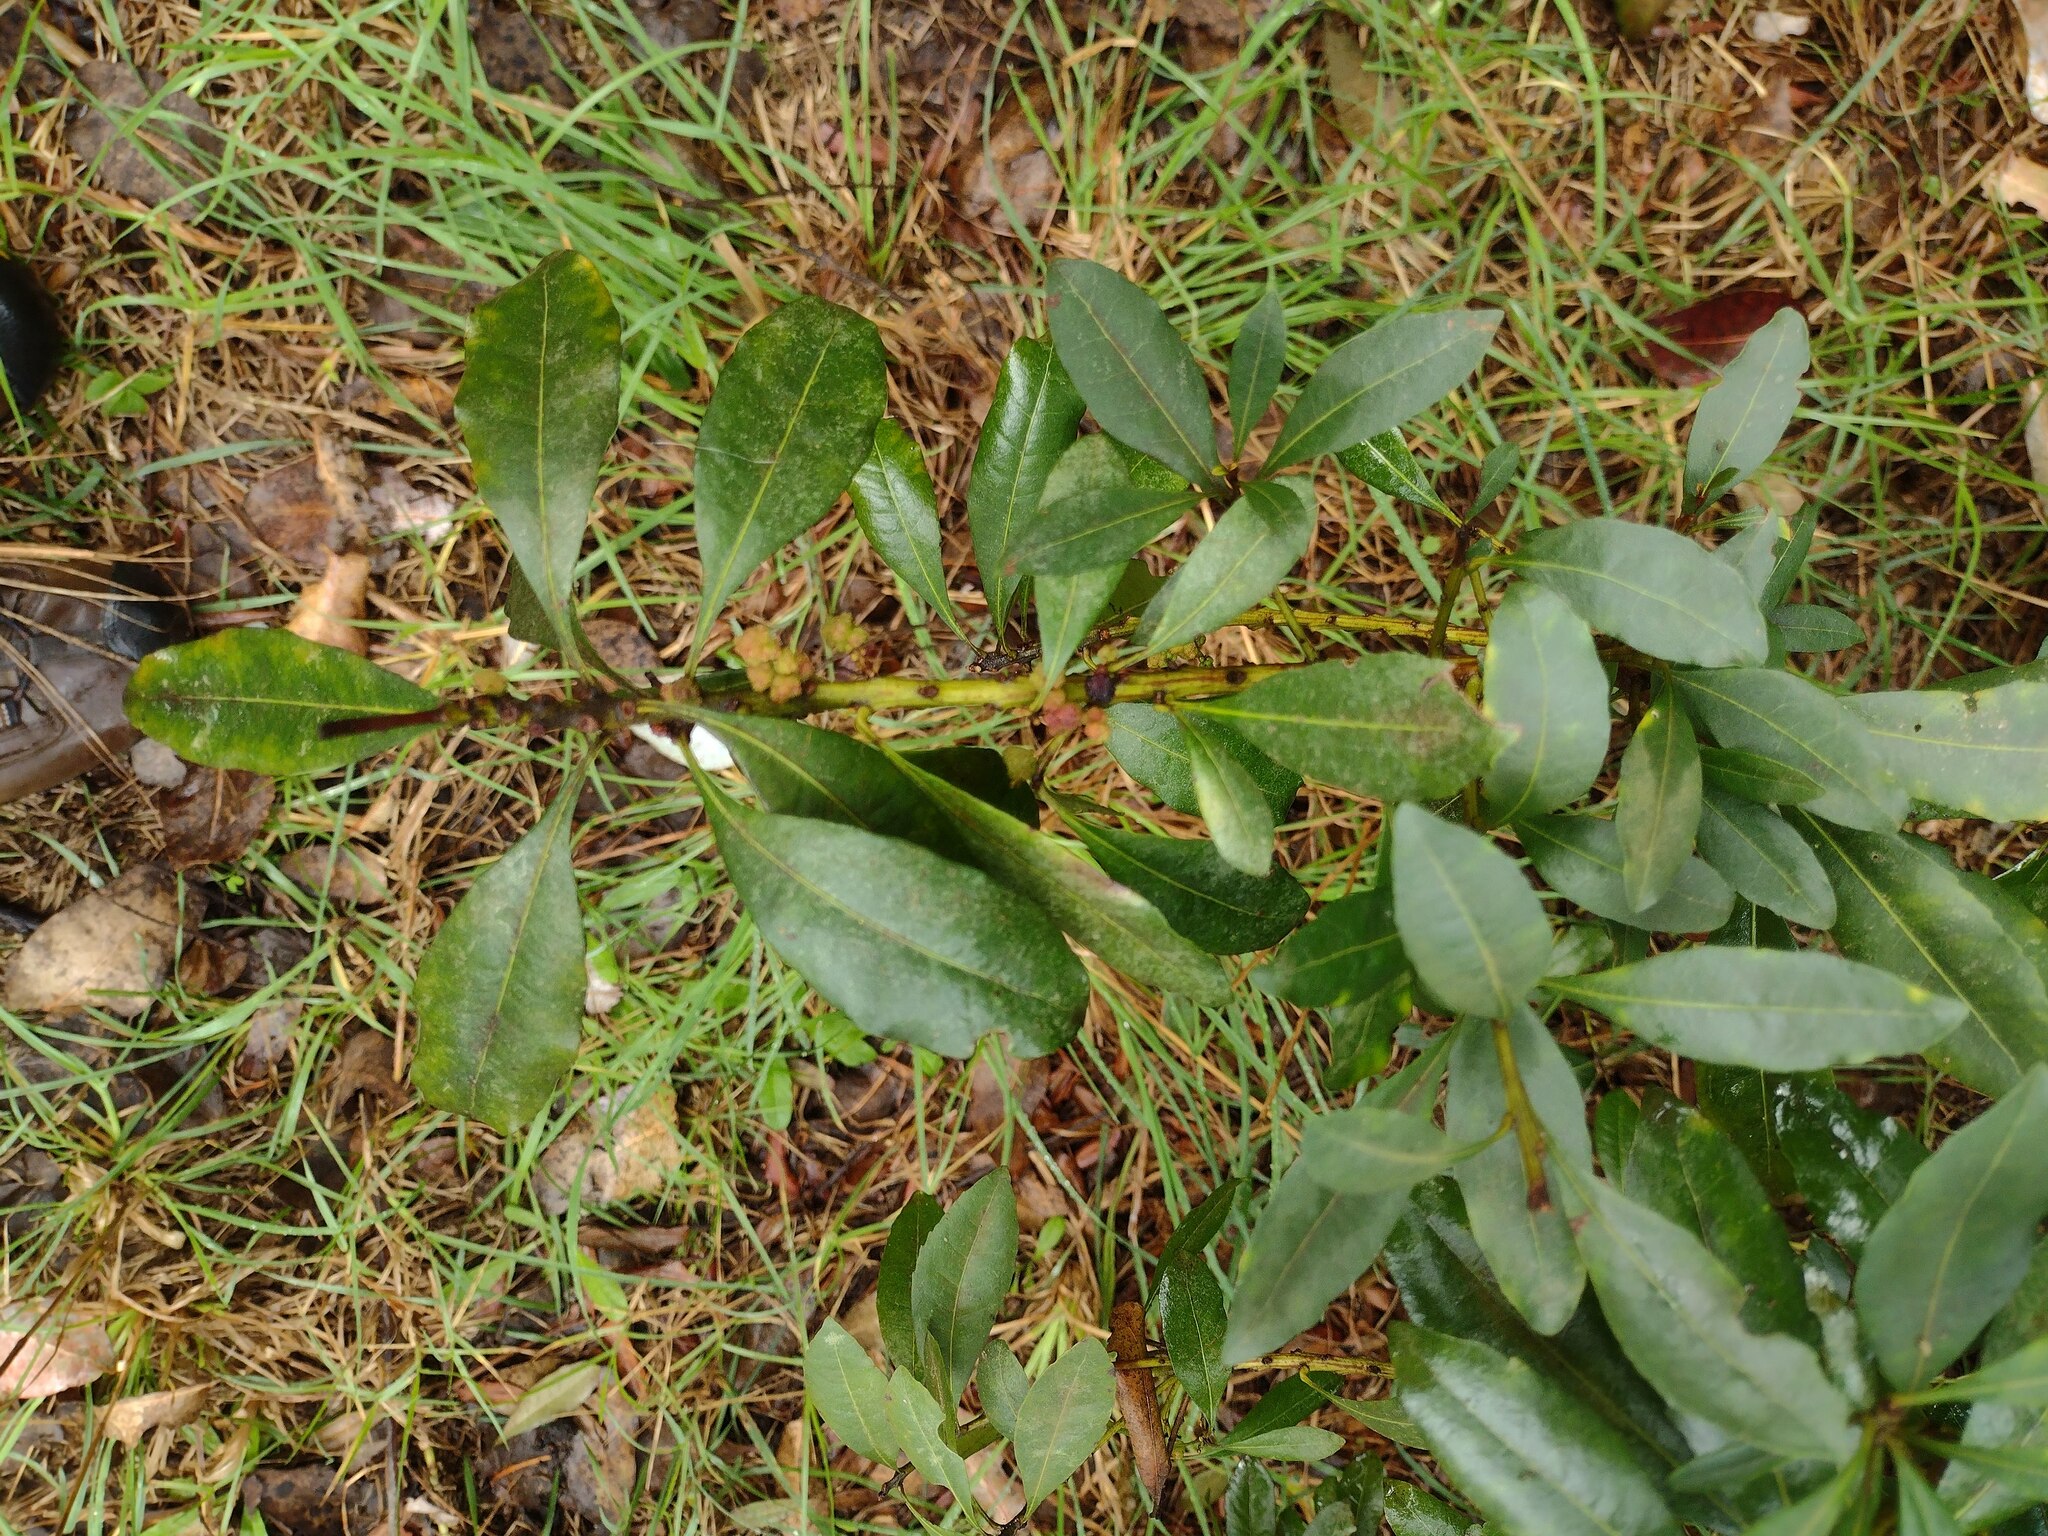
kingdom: Plantae
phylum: Tracheophyta
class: Magnoliopsida
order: Fagales
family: Myricaceae
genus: Morella
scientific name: Morella faya
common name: Firetree
